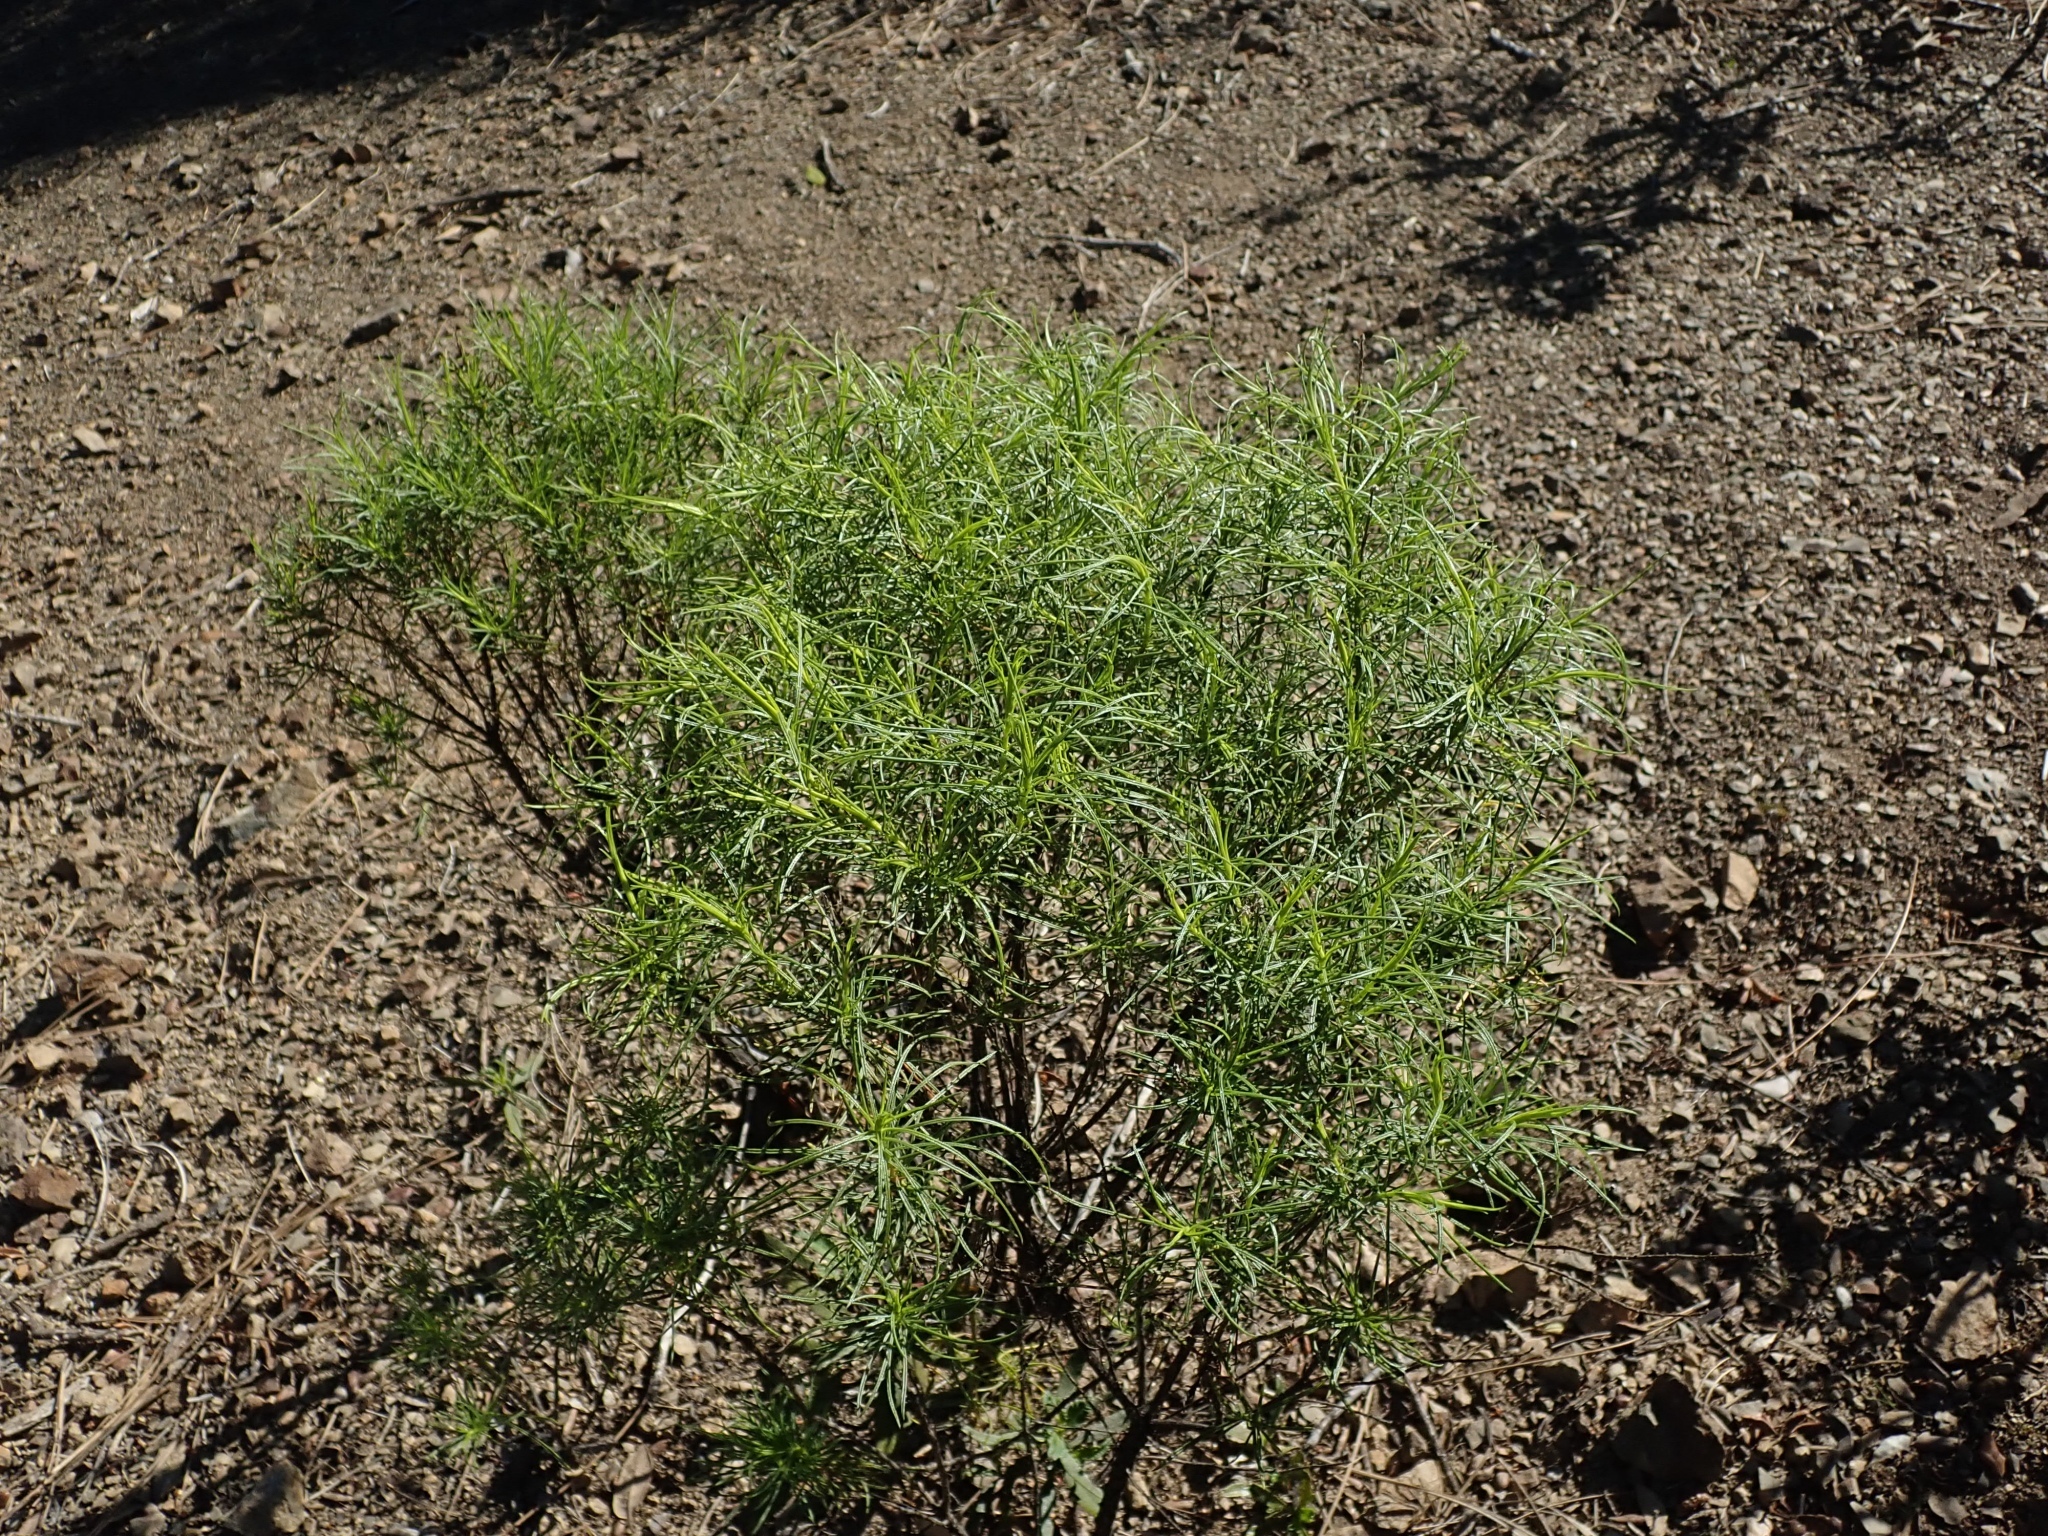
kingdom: Plantae
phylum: Tracheophyta
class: Magnoliopsida
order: Asterales
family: Asteraceae
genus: Ericameria
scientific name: Ericameria arborescens
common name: Goldenfleece
